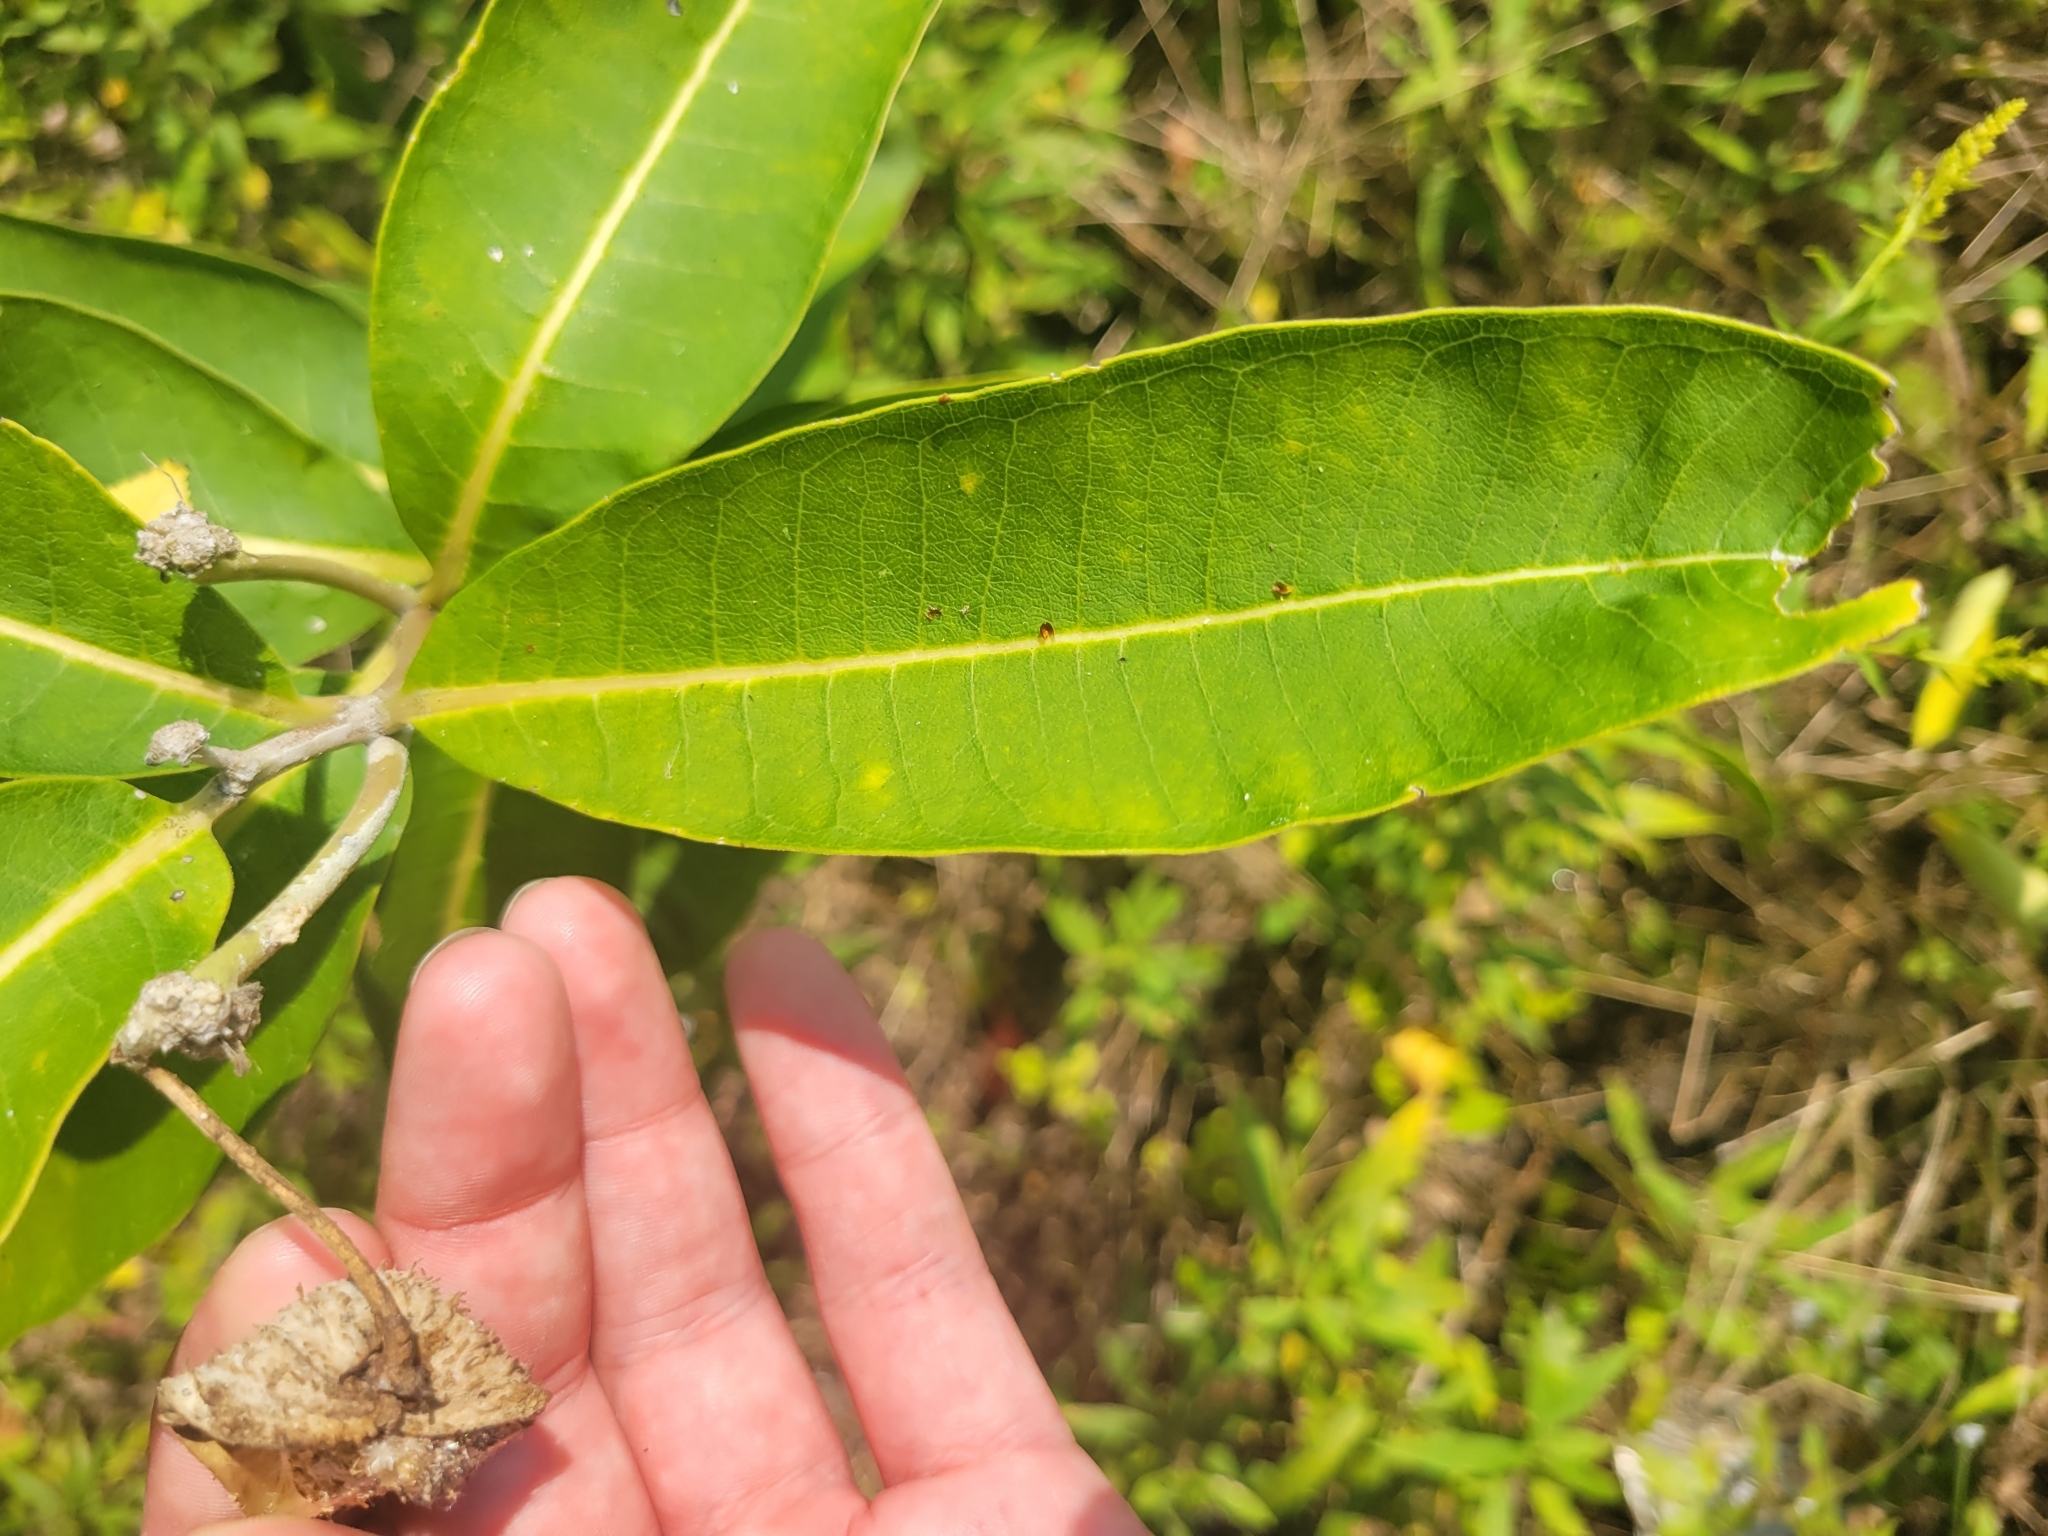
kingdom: Plantae
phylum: Tracheophyta
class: Magnoliopsida
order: Gentianales
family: Apocynaceae
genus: Asclepias
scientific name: Asclepias syriaca
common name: Common milkweed
